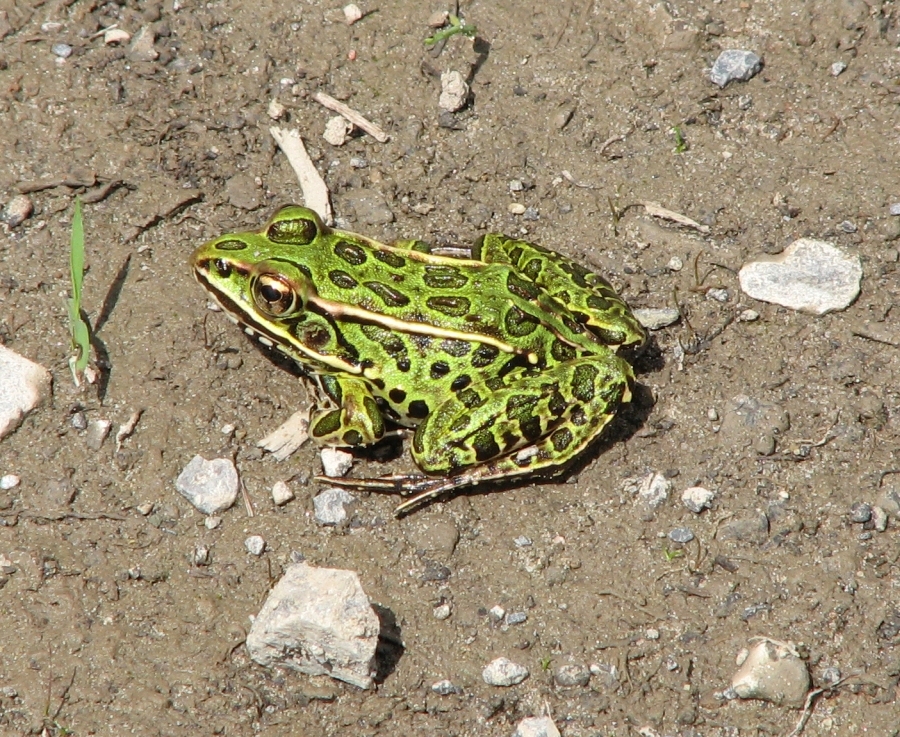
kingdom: Animalia
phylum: Chordata
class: Amphibia
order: Anura
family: Ranidae
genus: Lithobates
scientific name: Lithobates pipiens
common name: Northern leopard frog
